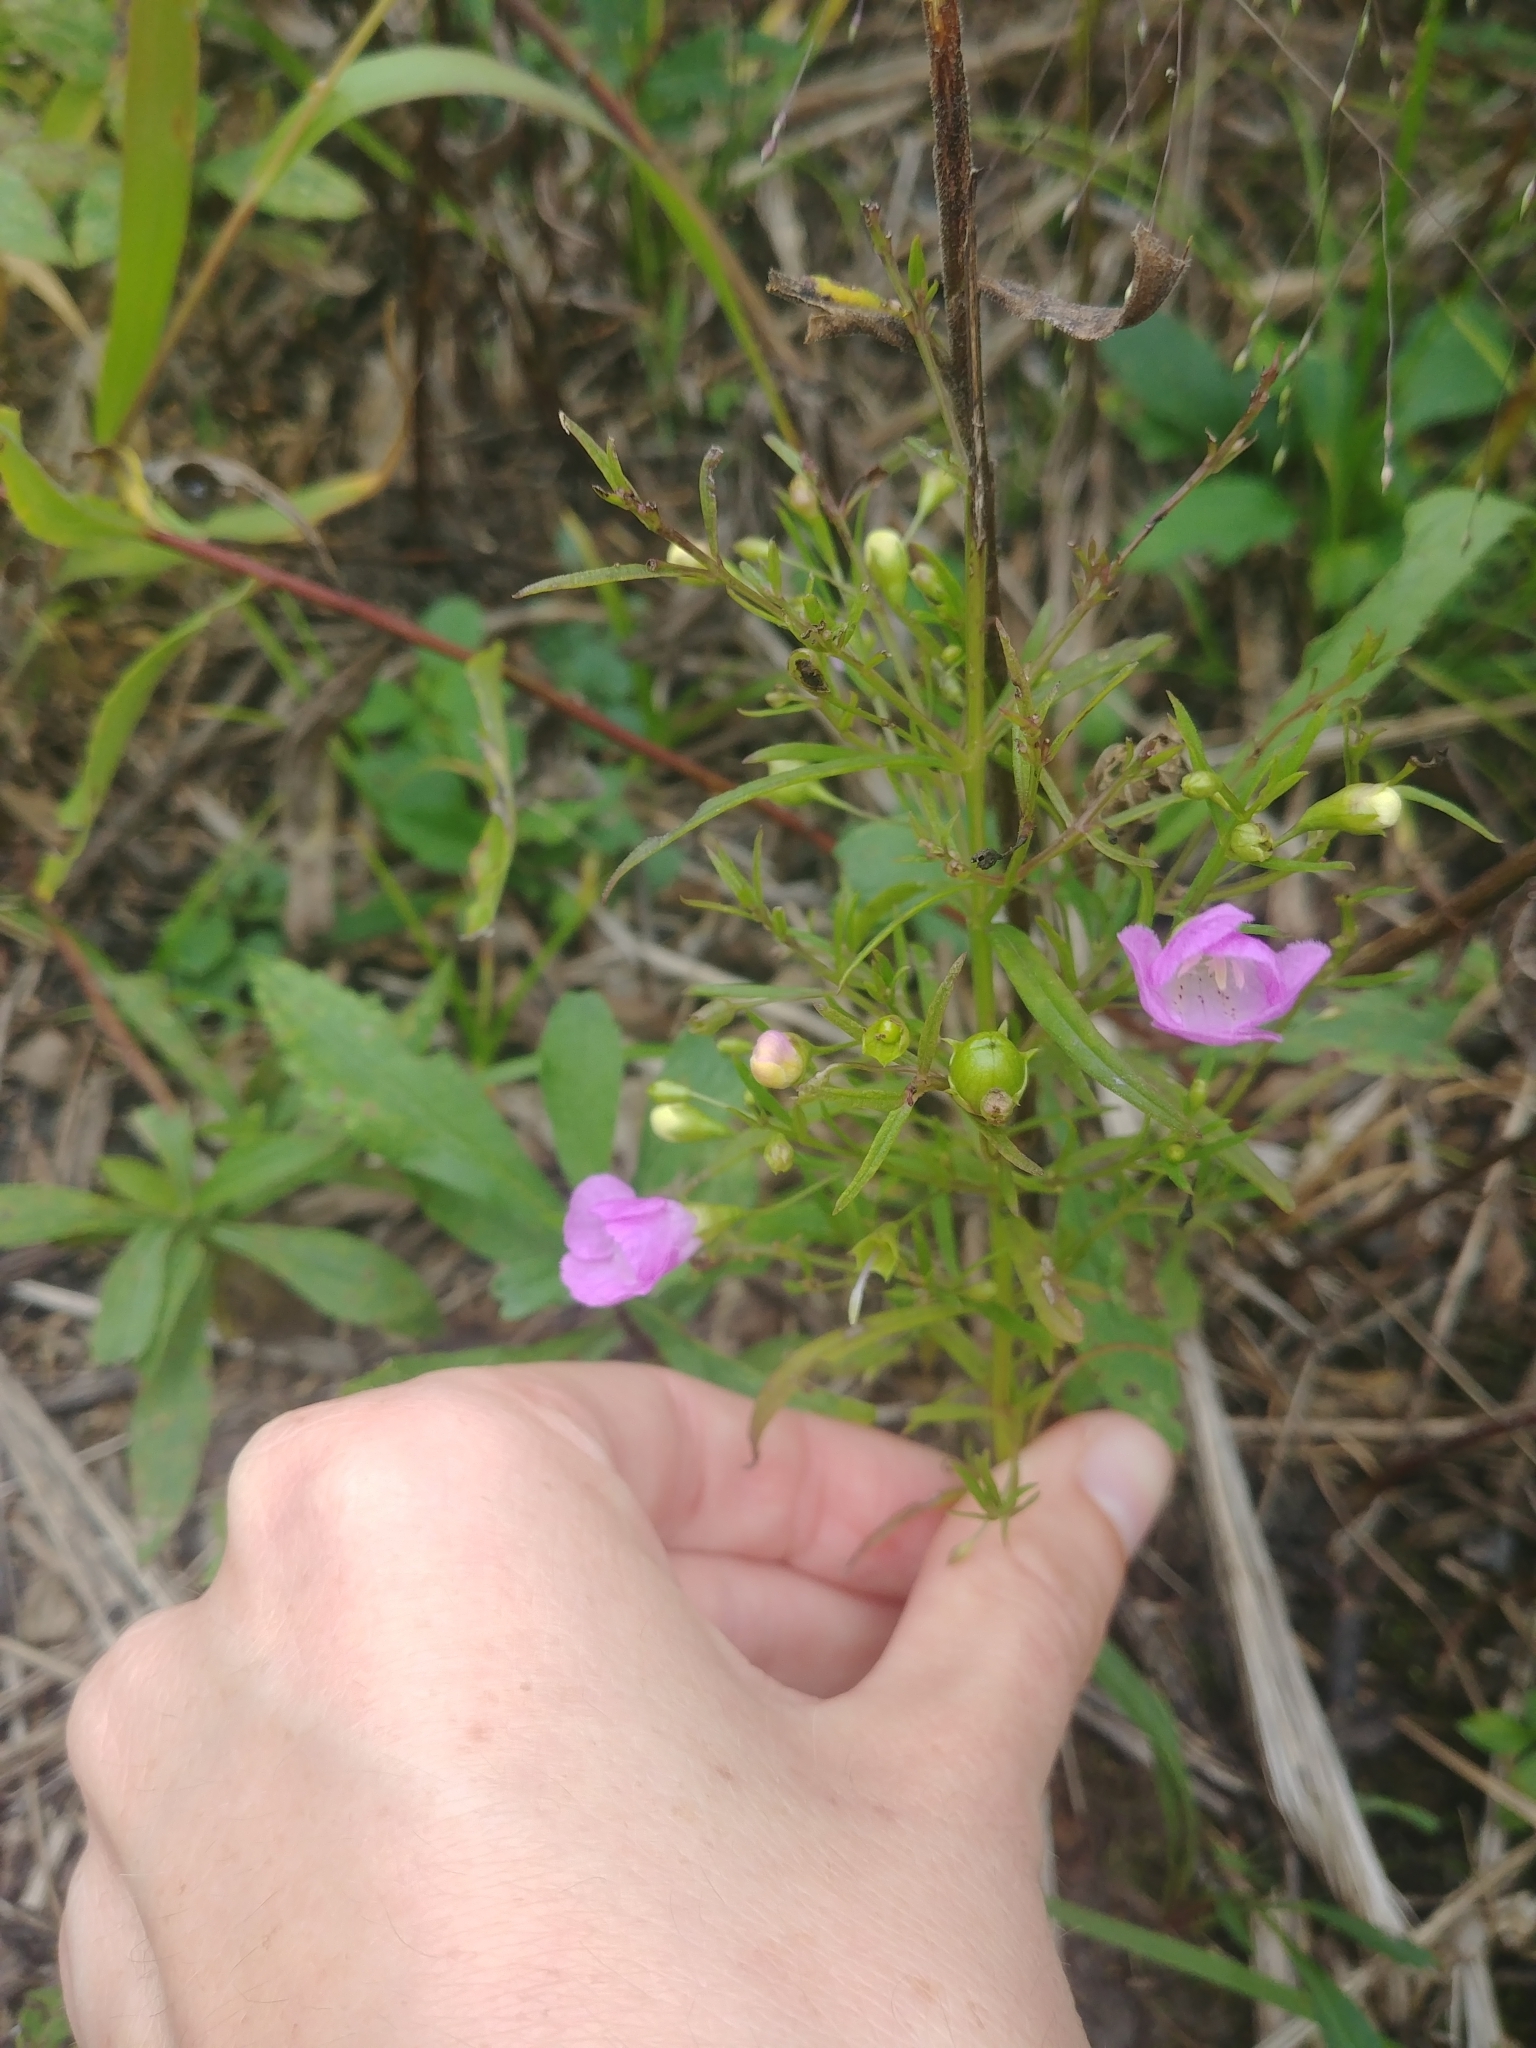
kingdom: Plantae
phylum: Tracheophyta
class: Magnoliopsida
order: Lamiales
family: Orobanchaceae
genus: Agalinis
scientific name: Agalinis tenuifolia
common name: Slender agalinis
